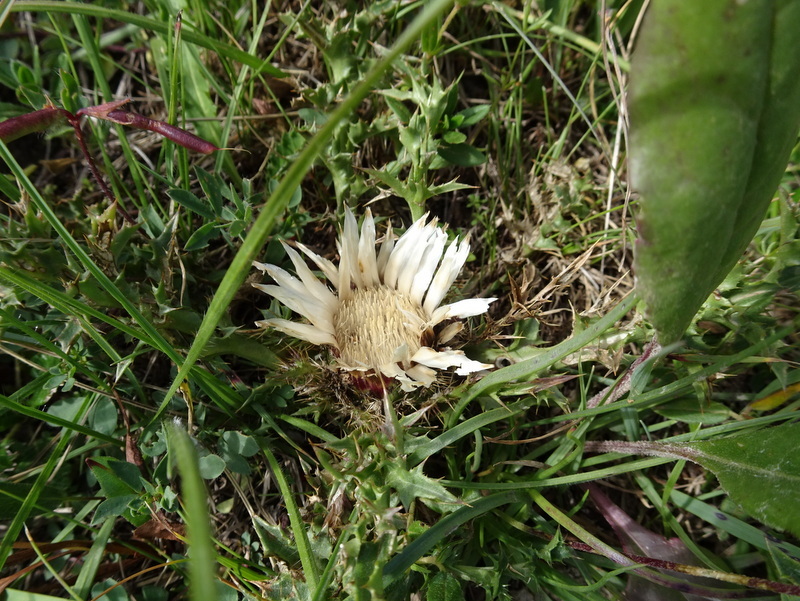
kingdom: Plantae
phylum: Tracheophyta
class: Magnoliopsida
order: Asterales
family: Asteraceae
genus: Carlina
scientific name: Carlina acaulis
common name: Stemless carline thistle
